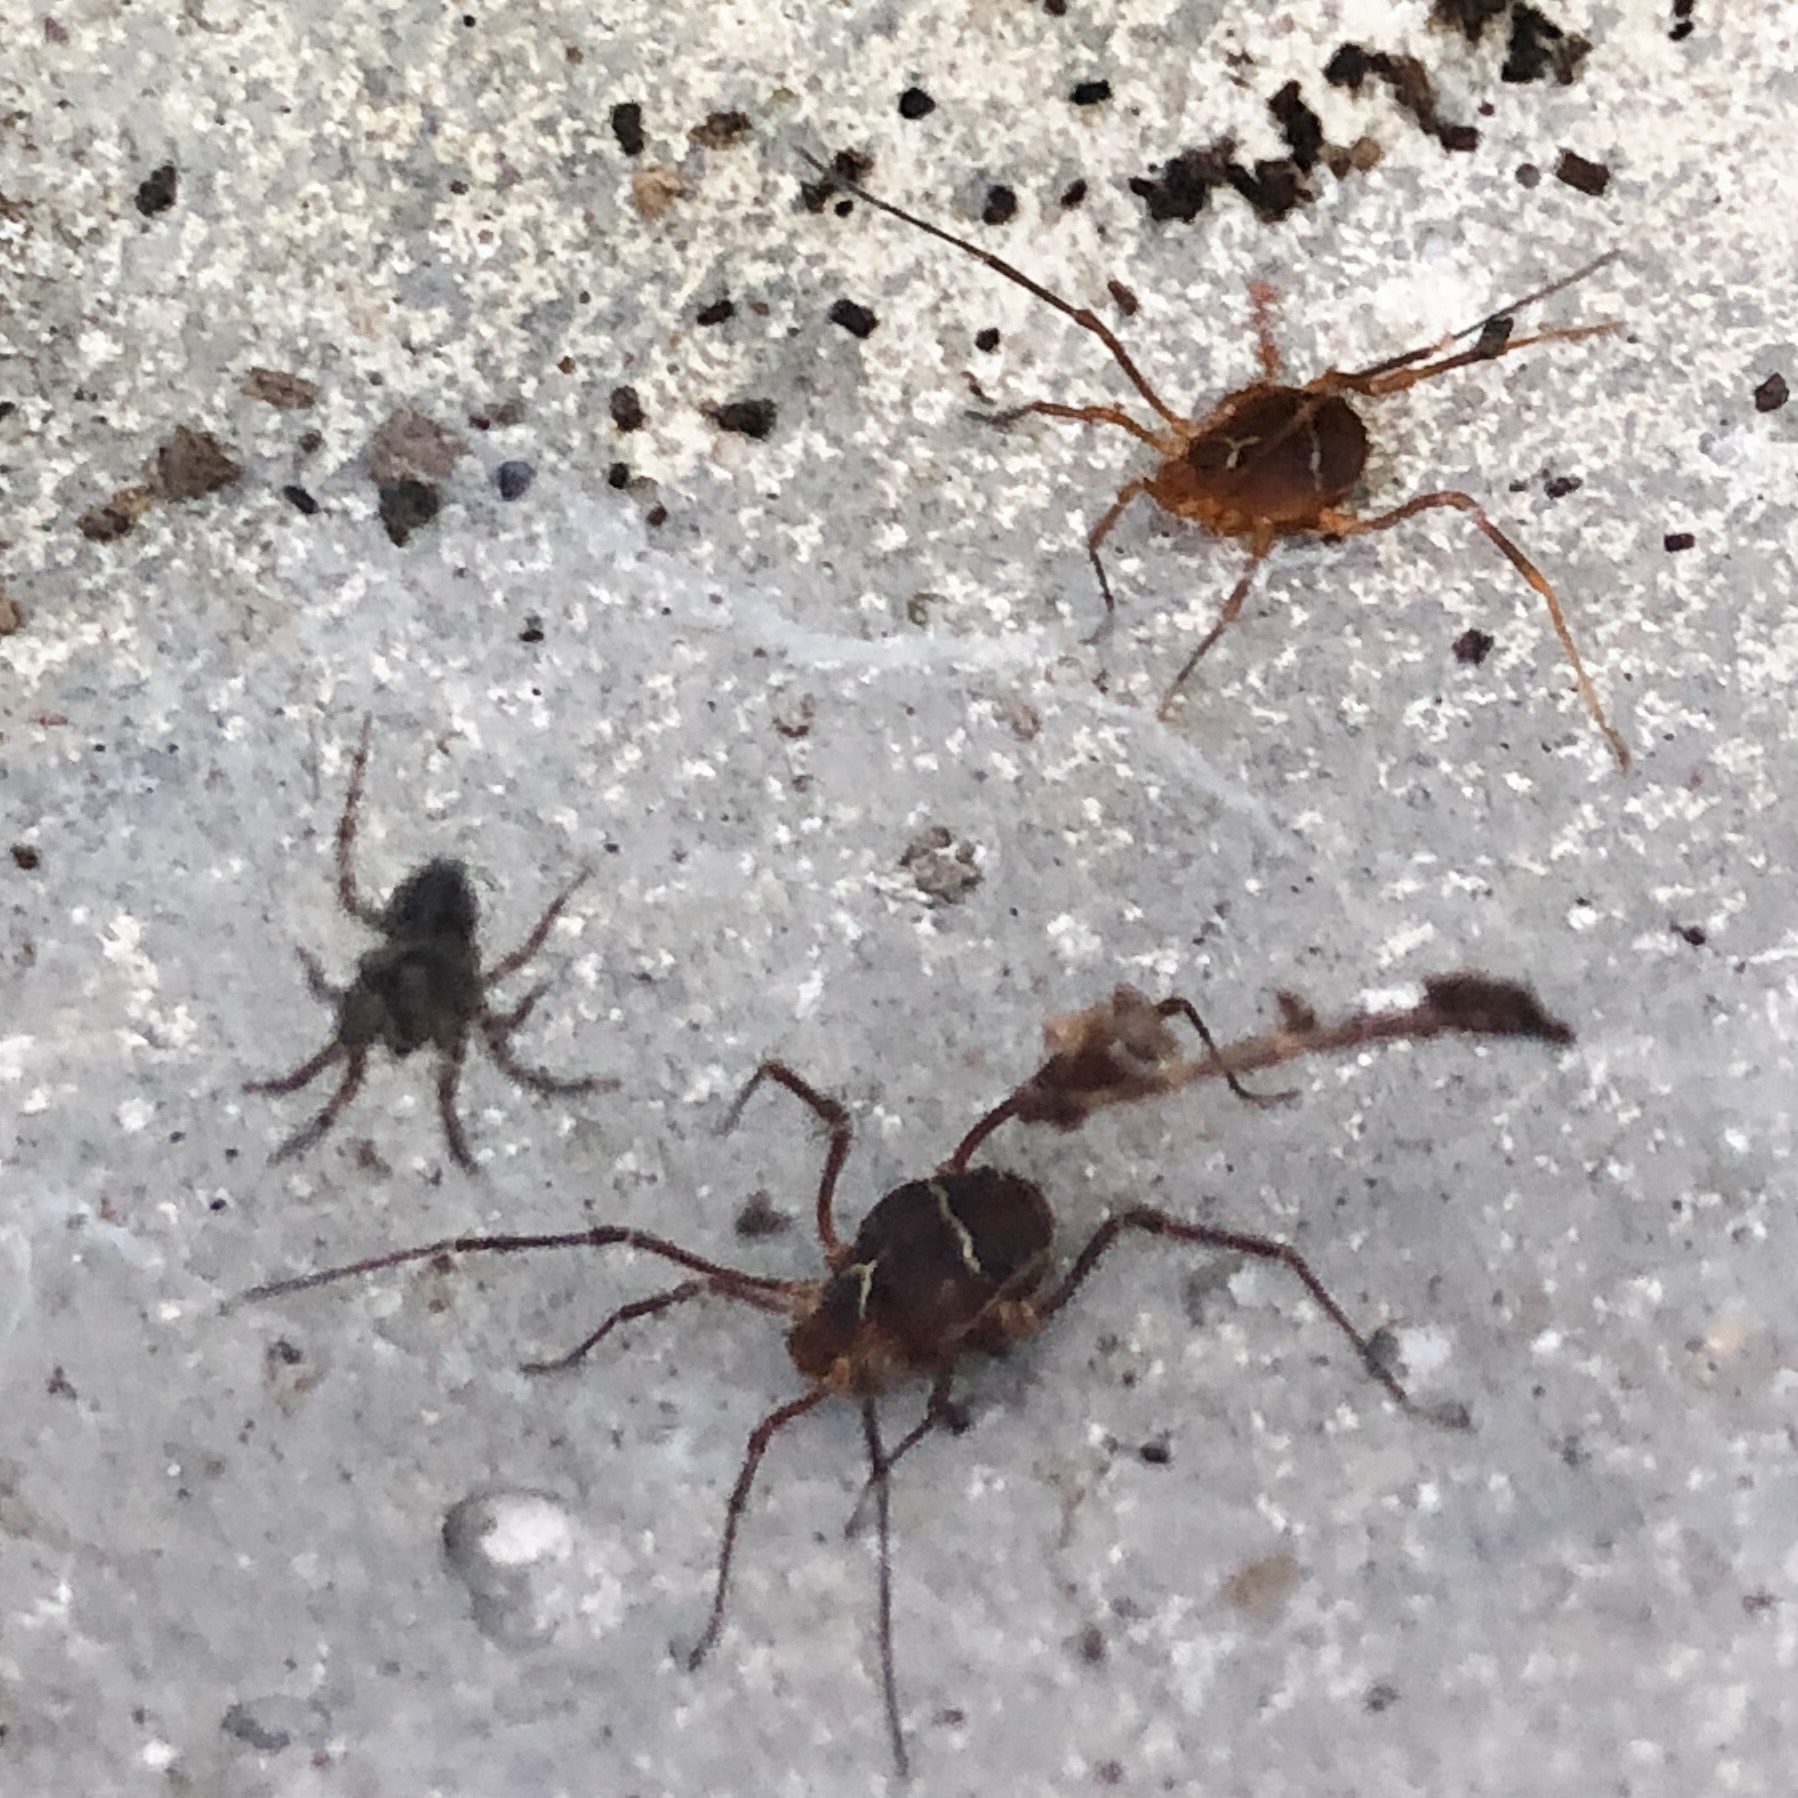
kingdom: Animalia
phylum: Arthropoda
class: Arachnida
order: Opiliones
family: Cosmetidae
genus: Libitioides
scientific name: Libitioides sayi
